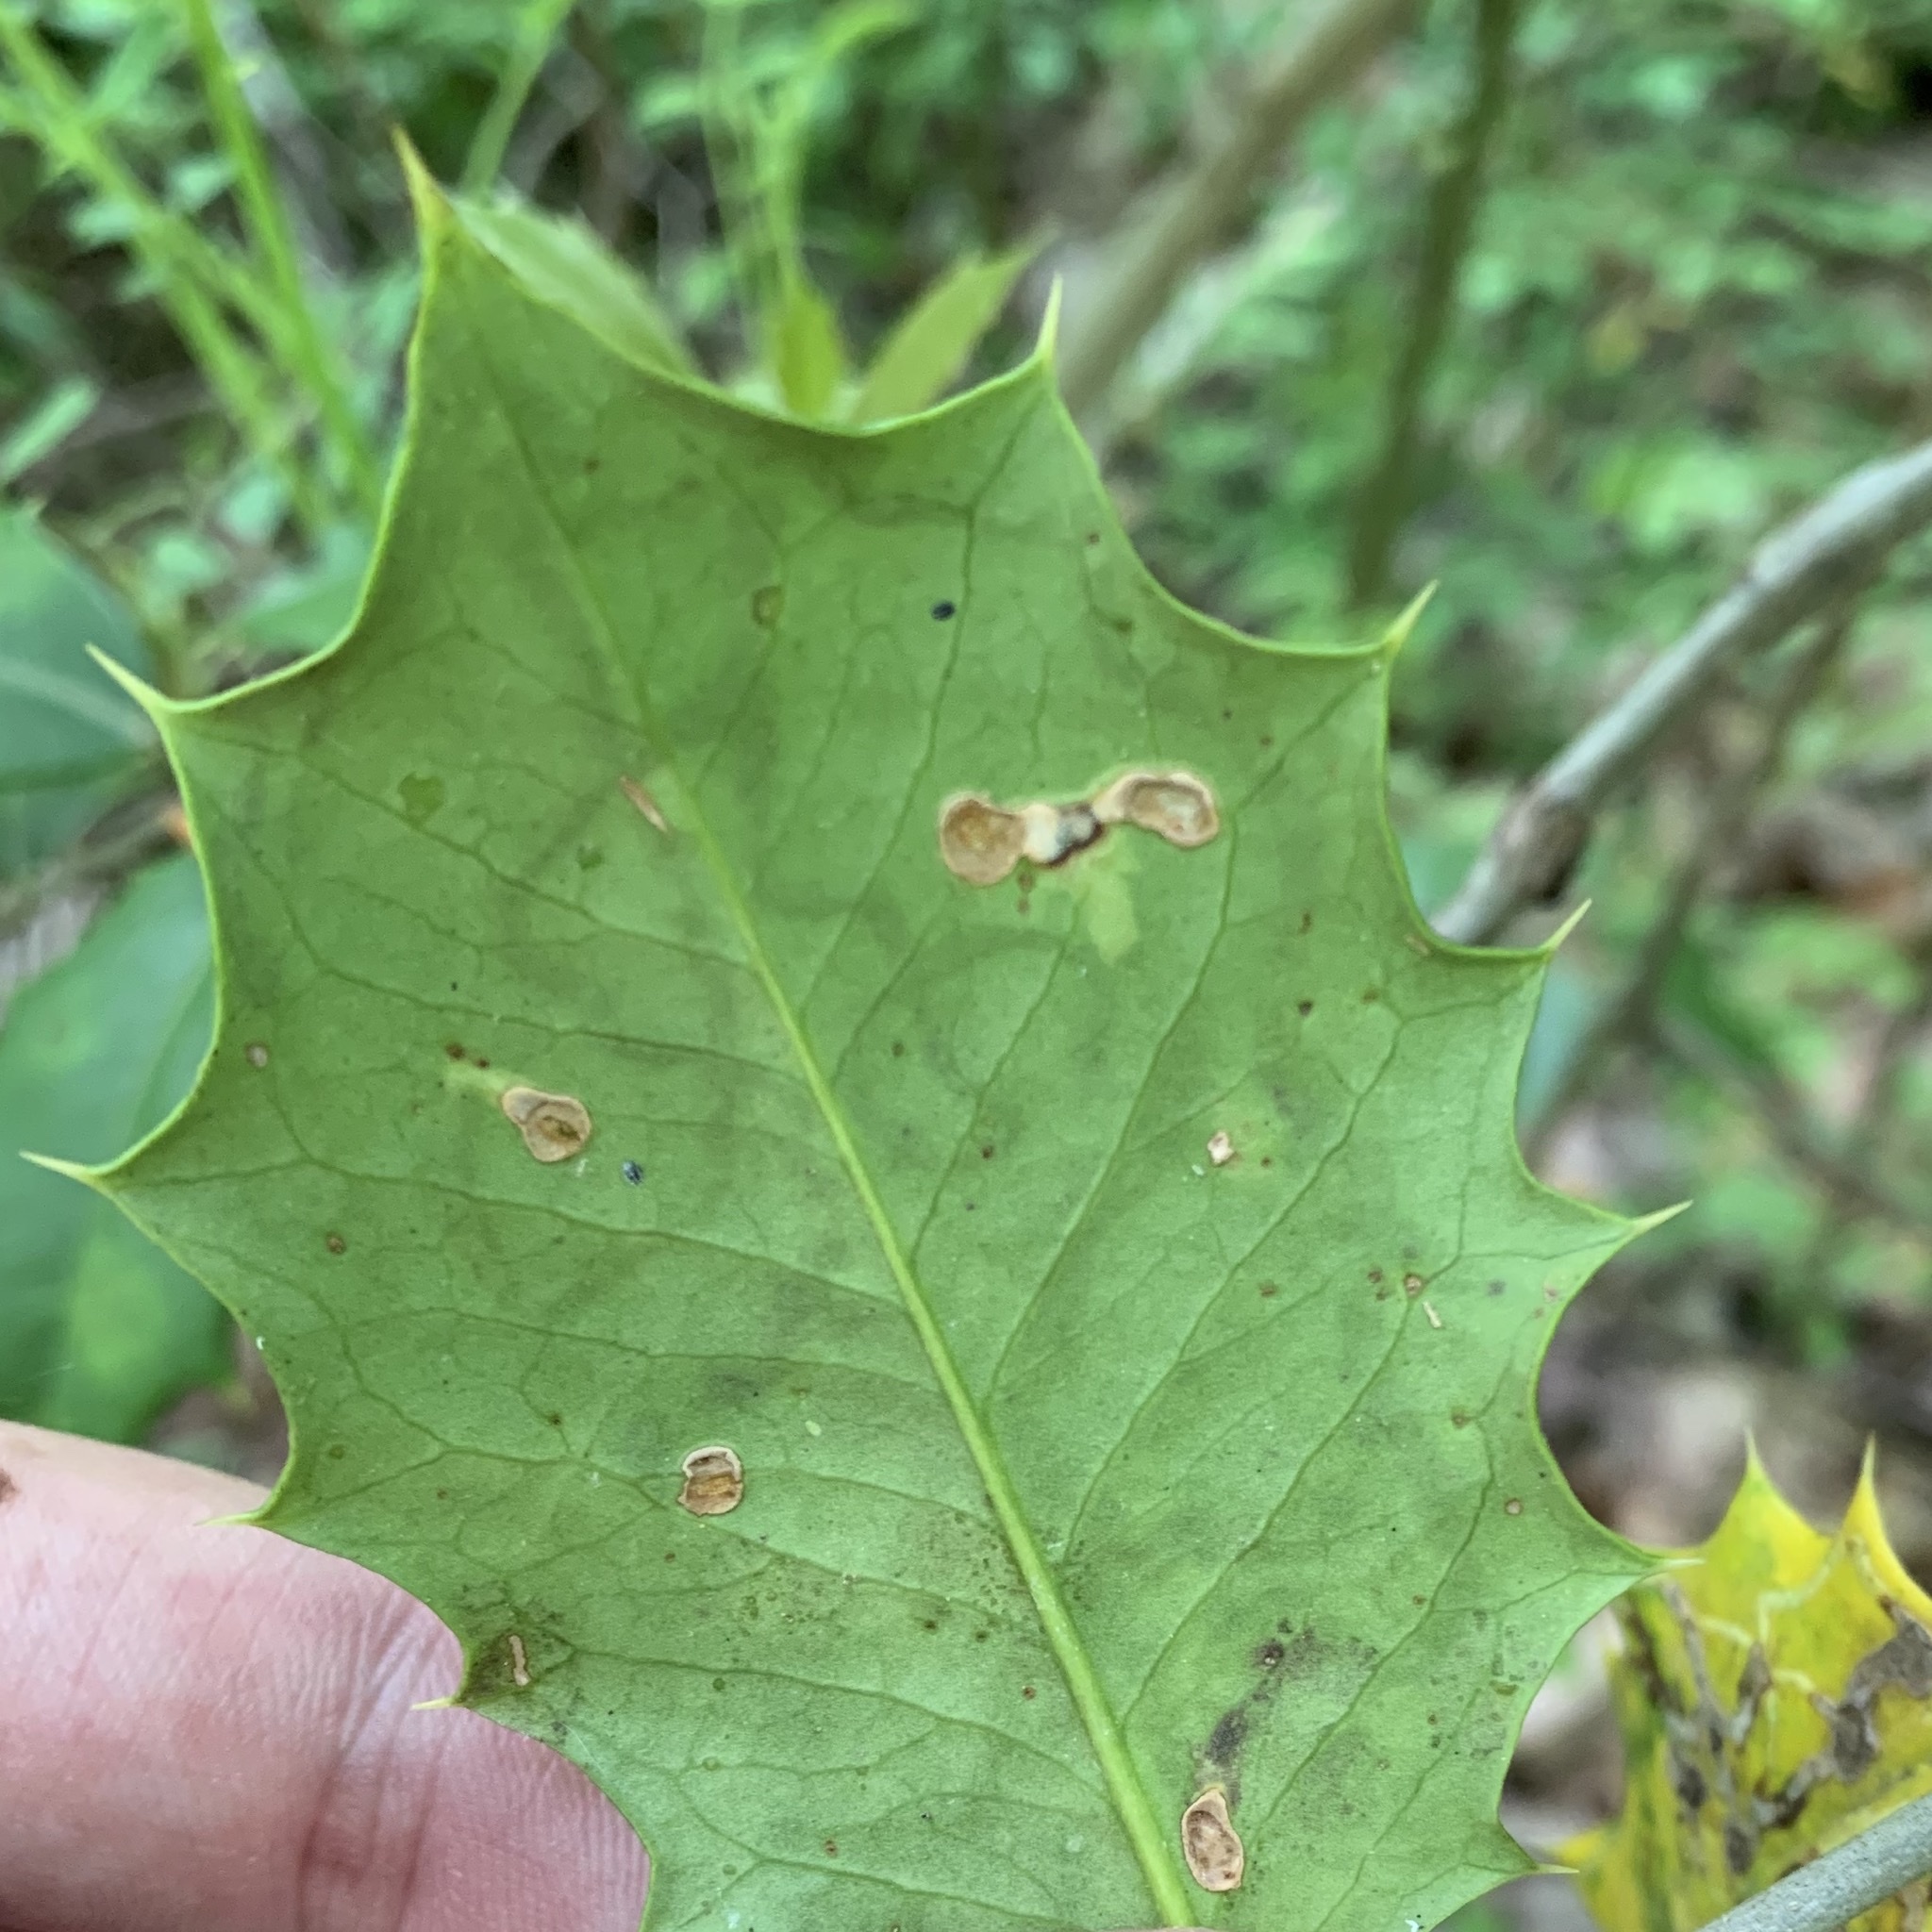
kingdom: Animalia
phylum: Arthropoda
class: Insecta
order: Diptera
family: Agromyzidae
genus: Phytomyza
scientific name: Phytomyza opacae
